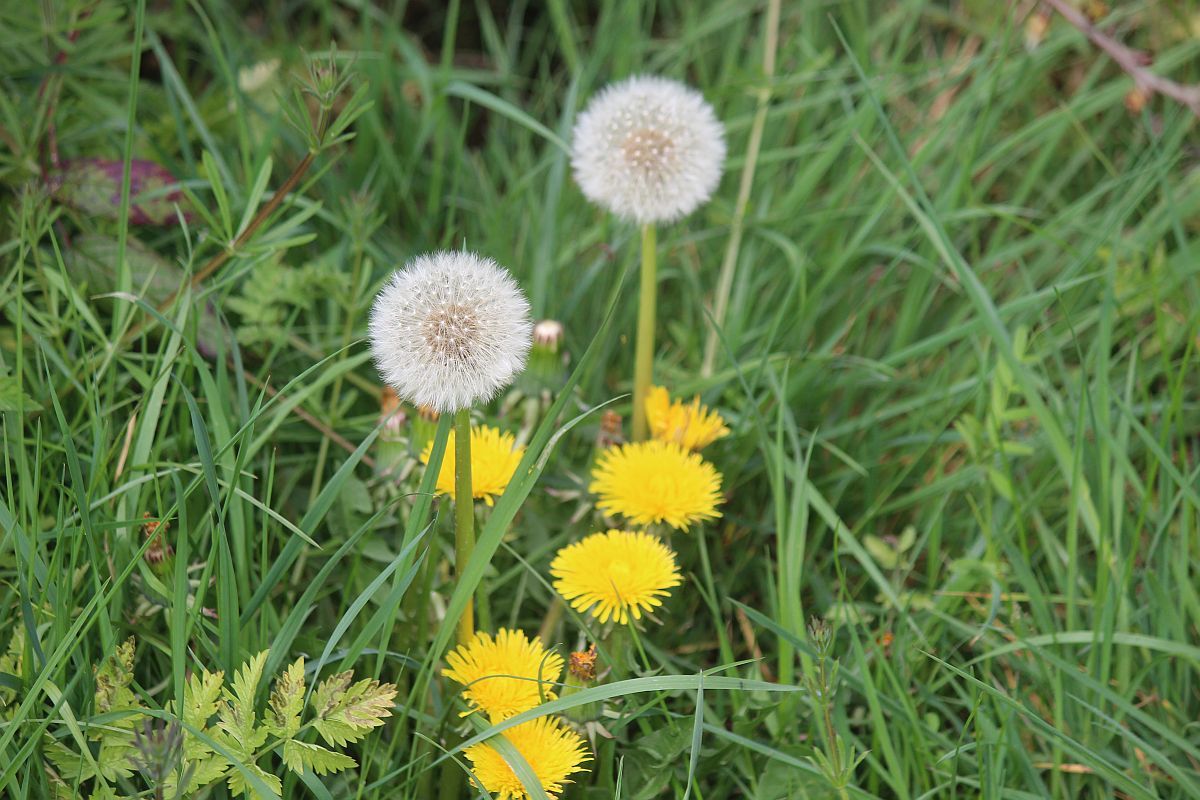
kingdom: Plantae
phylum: Tracheophyta
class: Magnoliopsida
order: Asterales
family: Asteraceae
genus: Taraxacum
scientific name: Taraxacum officinale
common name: Common dandelion
